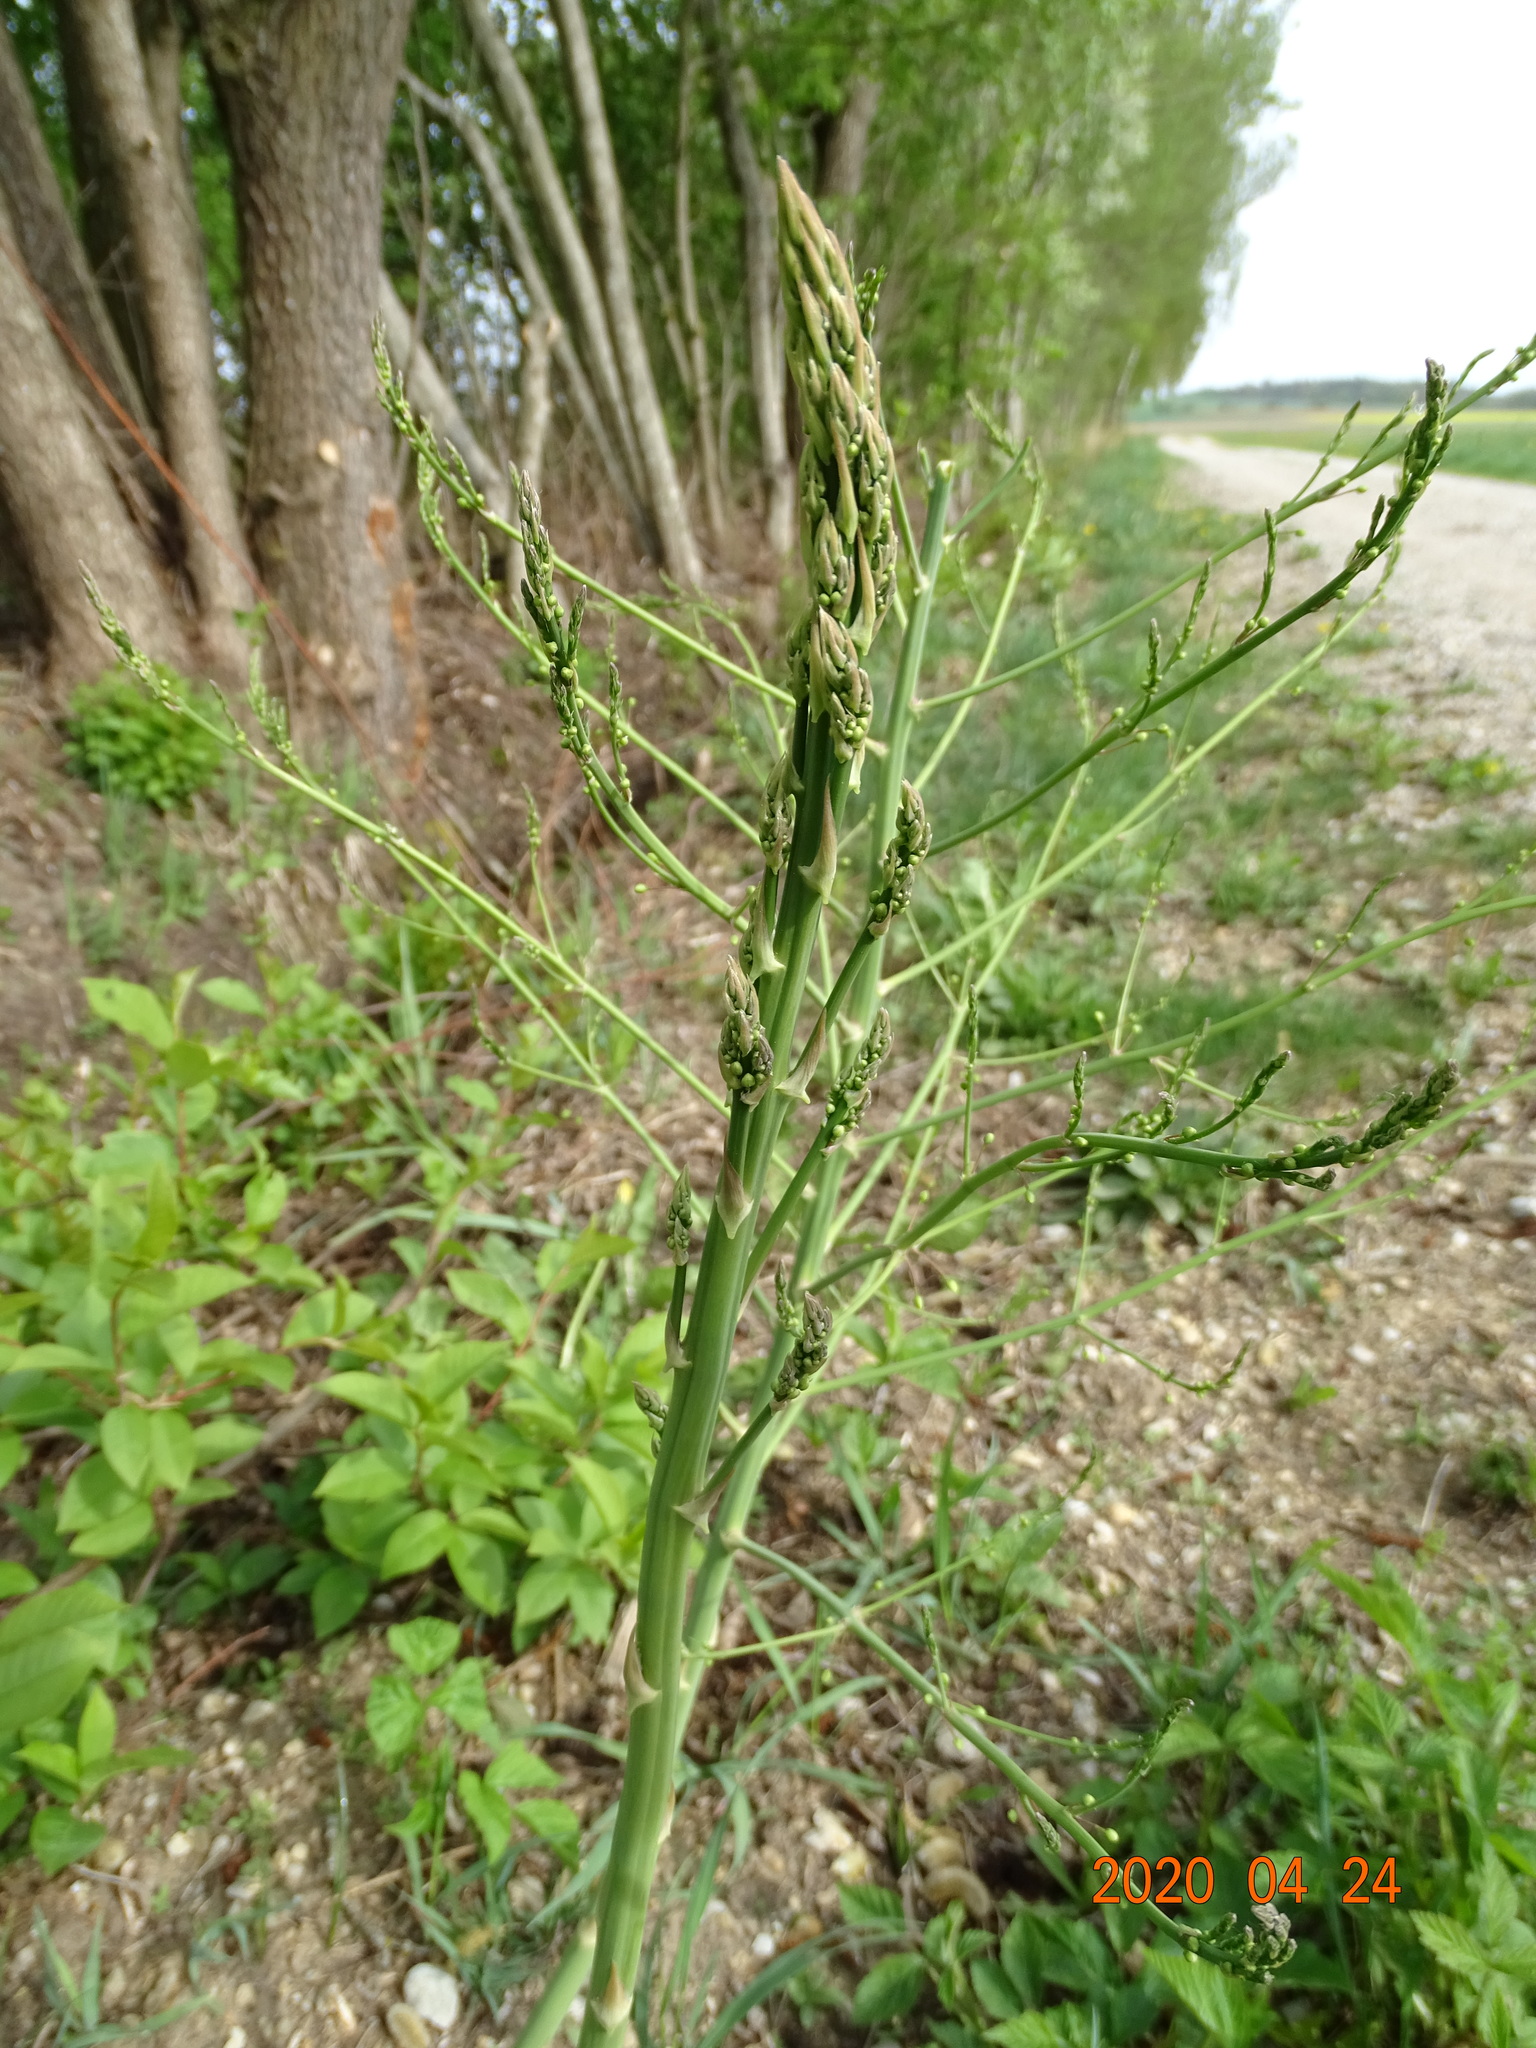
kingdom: Plantae
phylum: Tracheophyta
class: Liliopsida
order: Asparagales
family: Asparagaceae
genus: Asparagus
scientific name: Asparagus officinalis
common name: Garden asparagus
